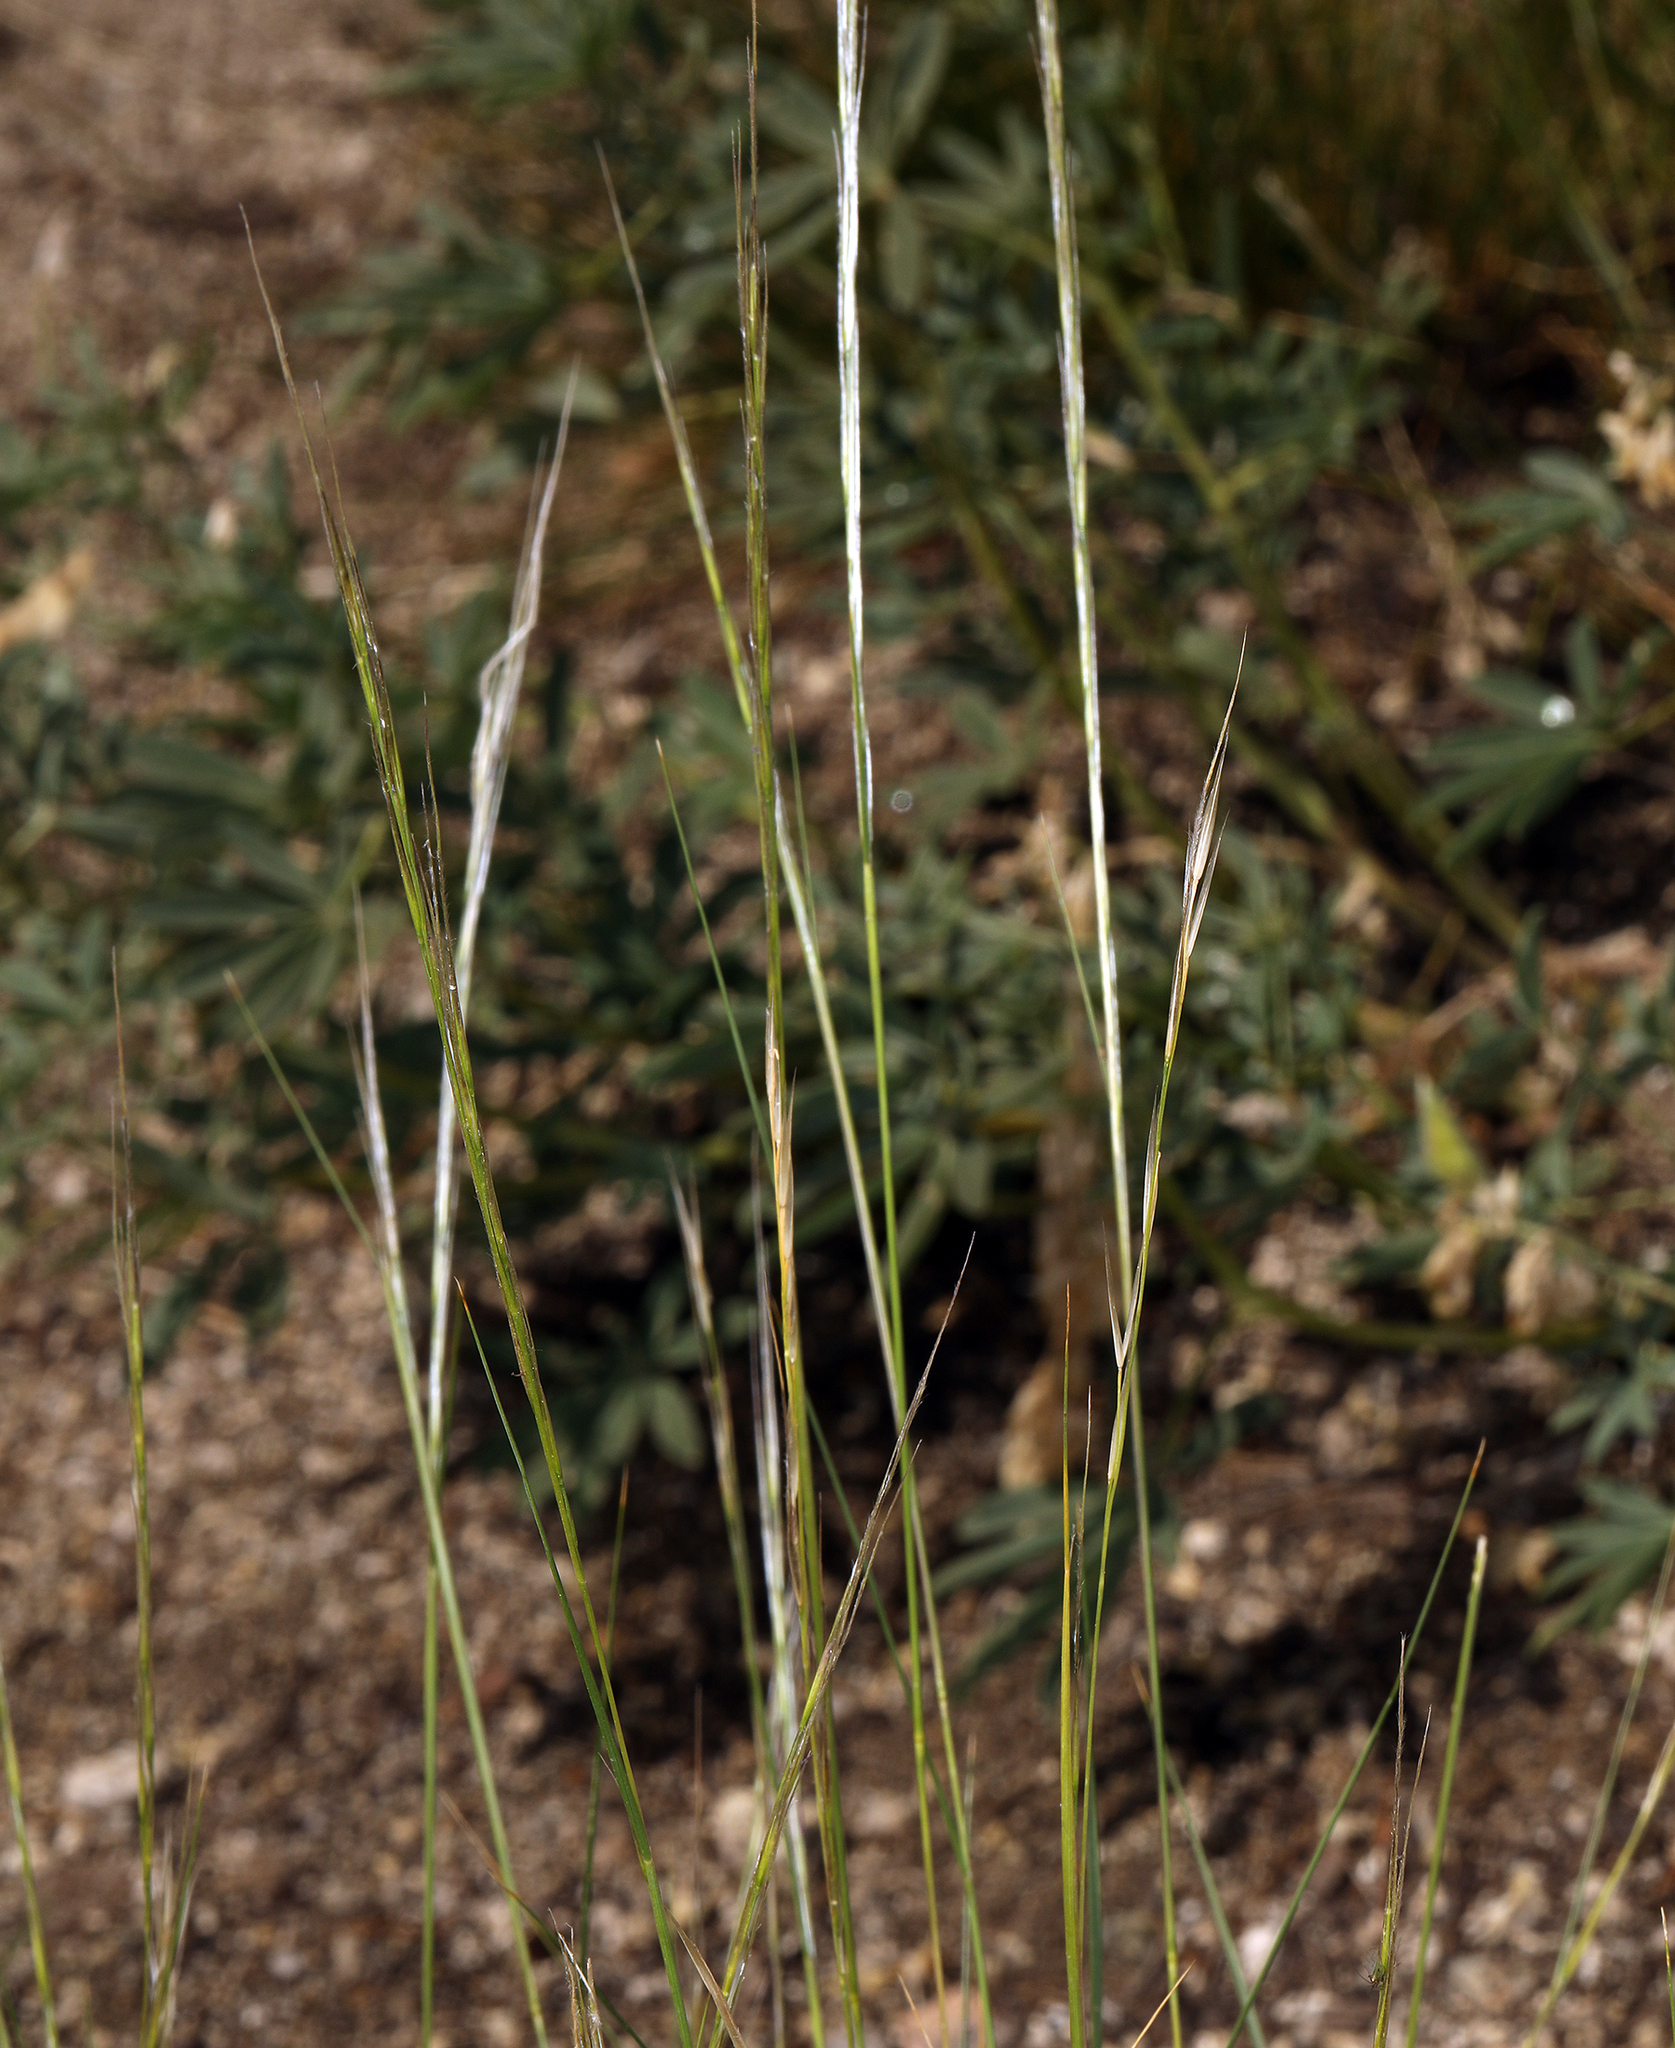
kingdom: Plantae
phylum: Tracheophyta
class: Liliopsida
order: Poales
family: Poaceae
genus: Eriocoma
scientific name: Eriocoma occidentalis
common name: Stiff needlegrass
